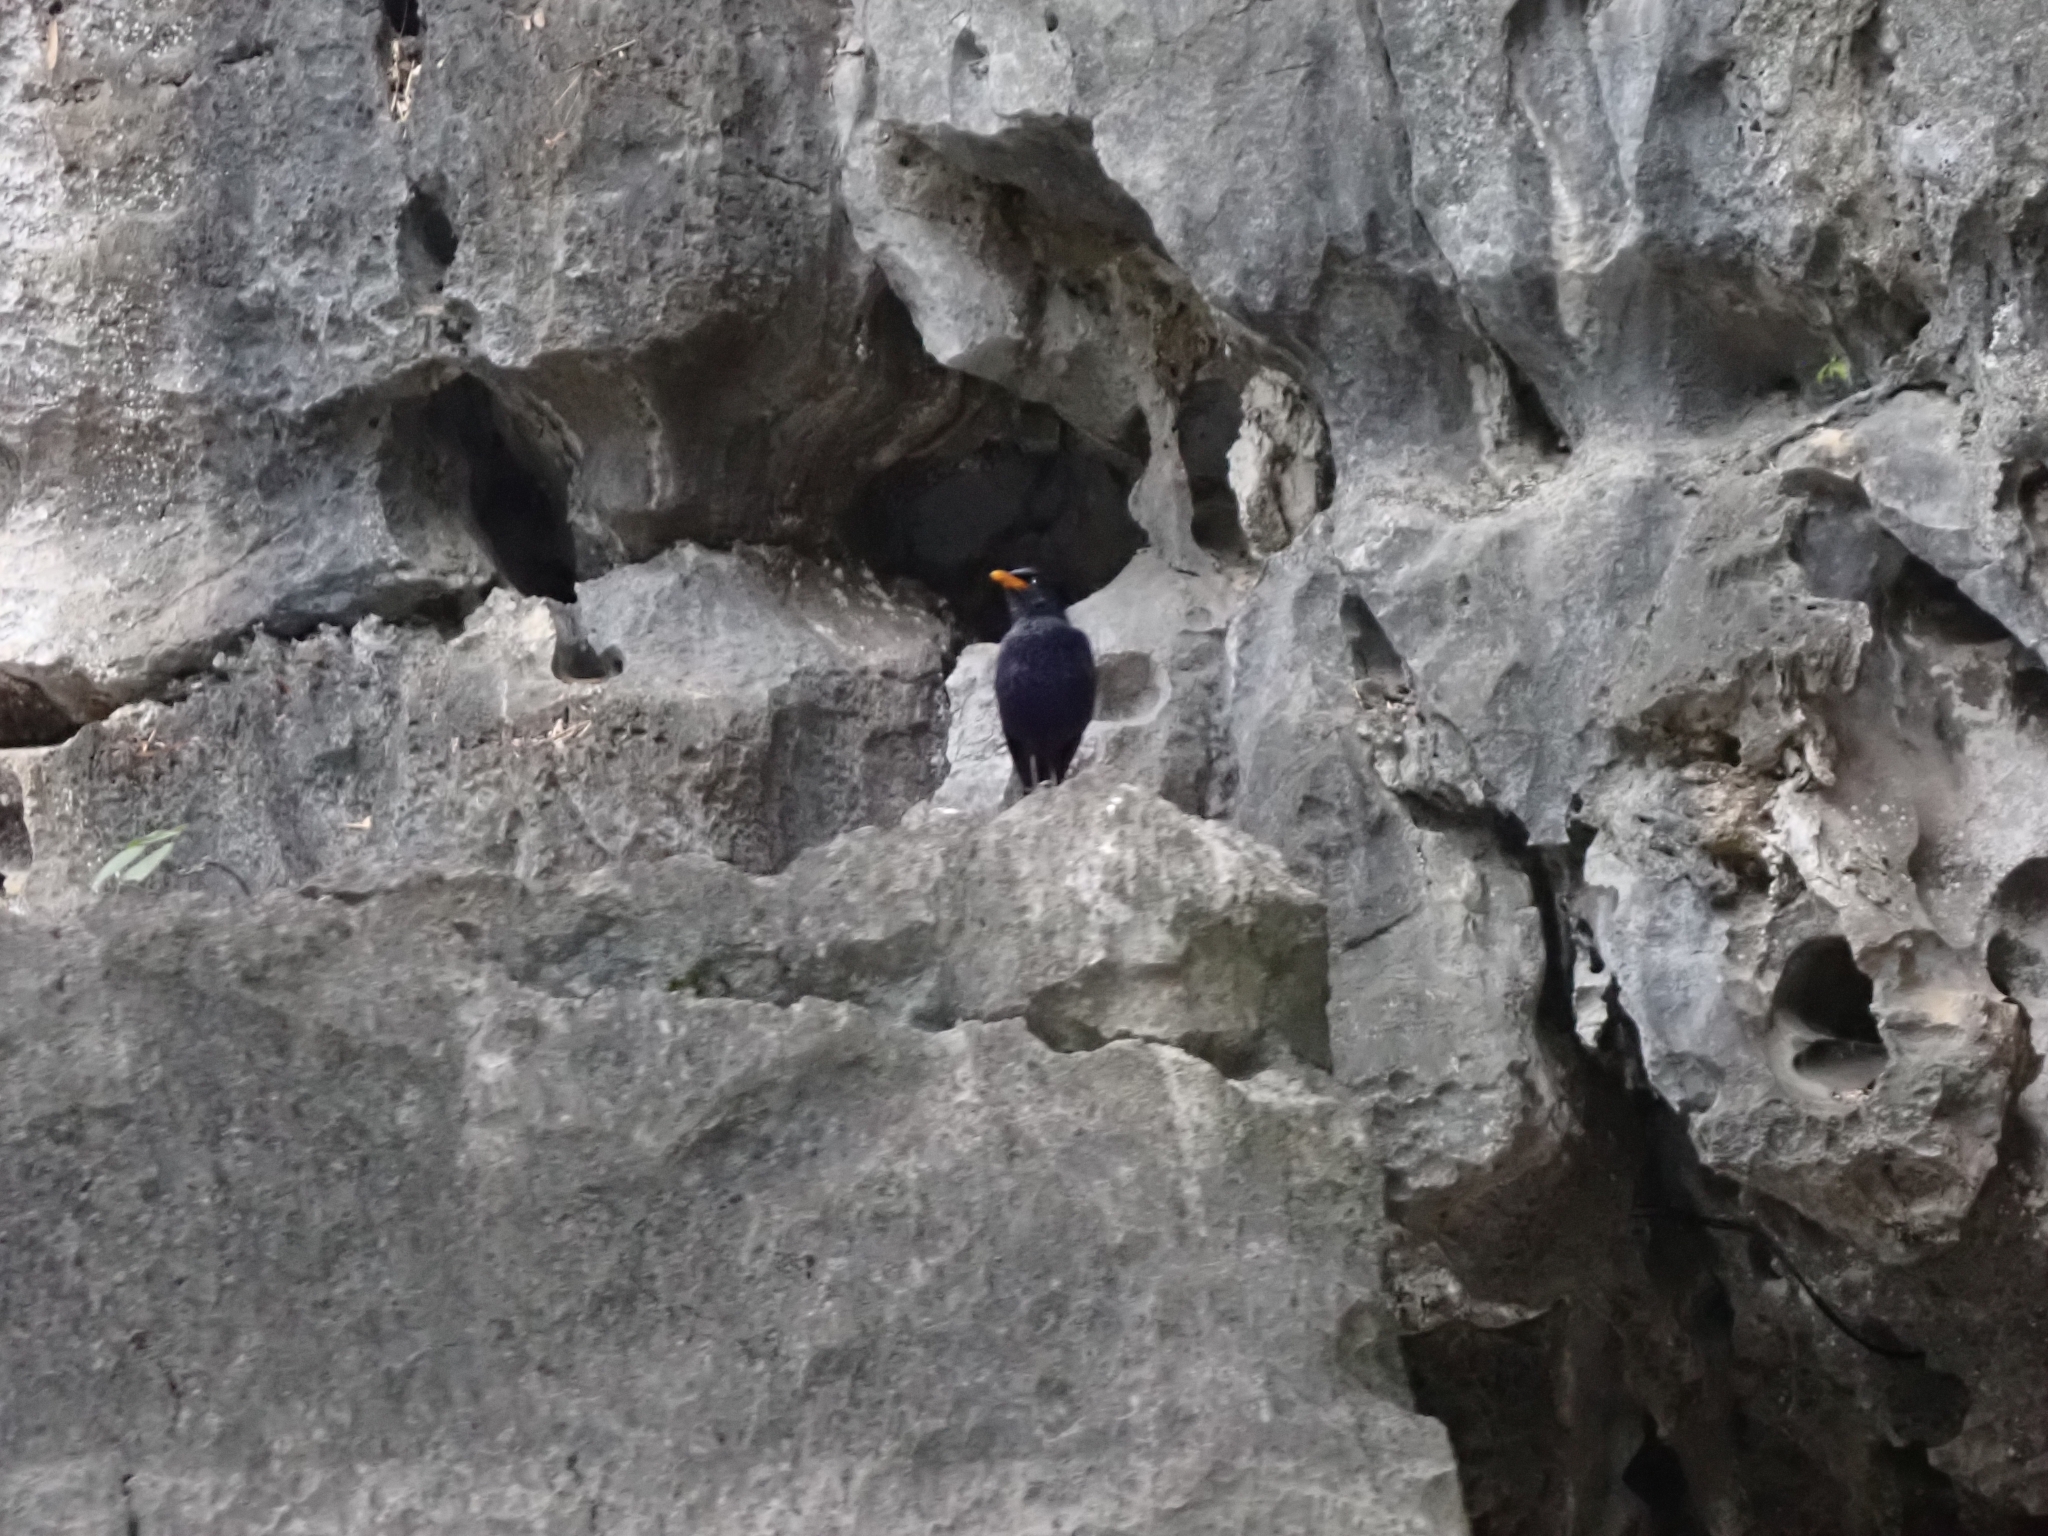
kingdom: Animalia
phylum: Chordata
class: Aves
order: Passeriformes
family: Muscicapidae
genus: Myophonus
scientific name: Myophonus caeruleus
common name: Blue whistling-thrush
